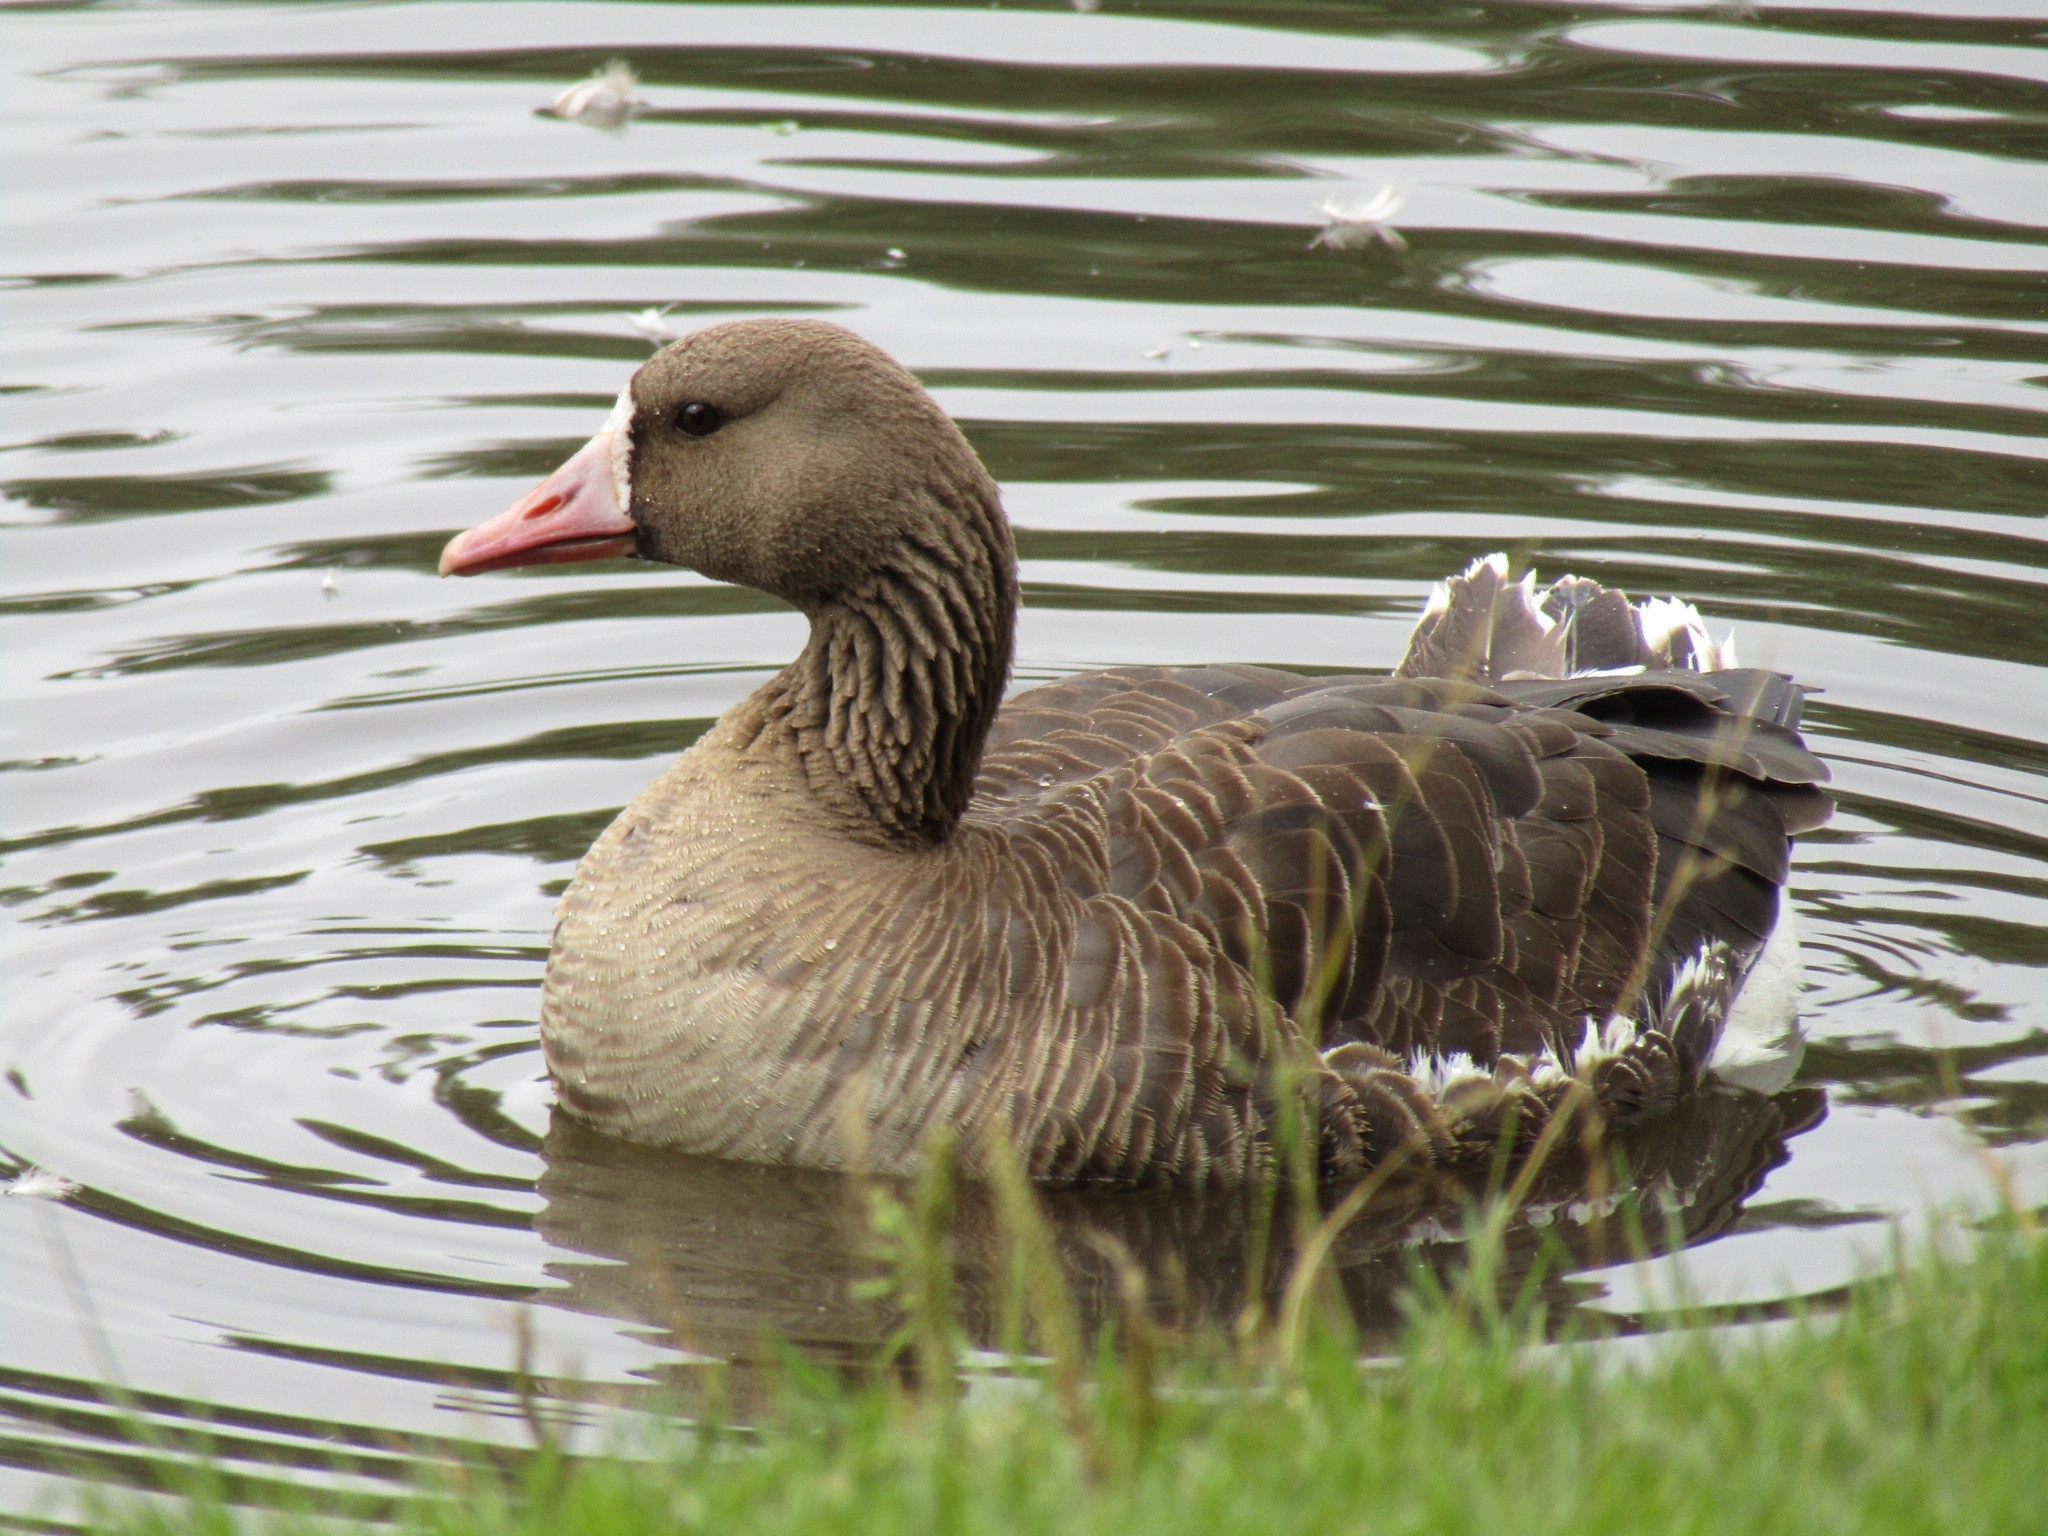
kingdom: Animalia
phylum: Chordata
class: Aves
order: Anseriformes
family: Anatidae
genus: Anser
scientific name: Anser albifrons
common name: Greater white-fronted goose
